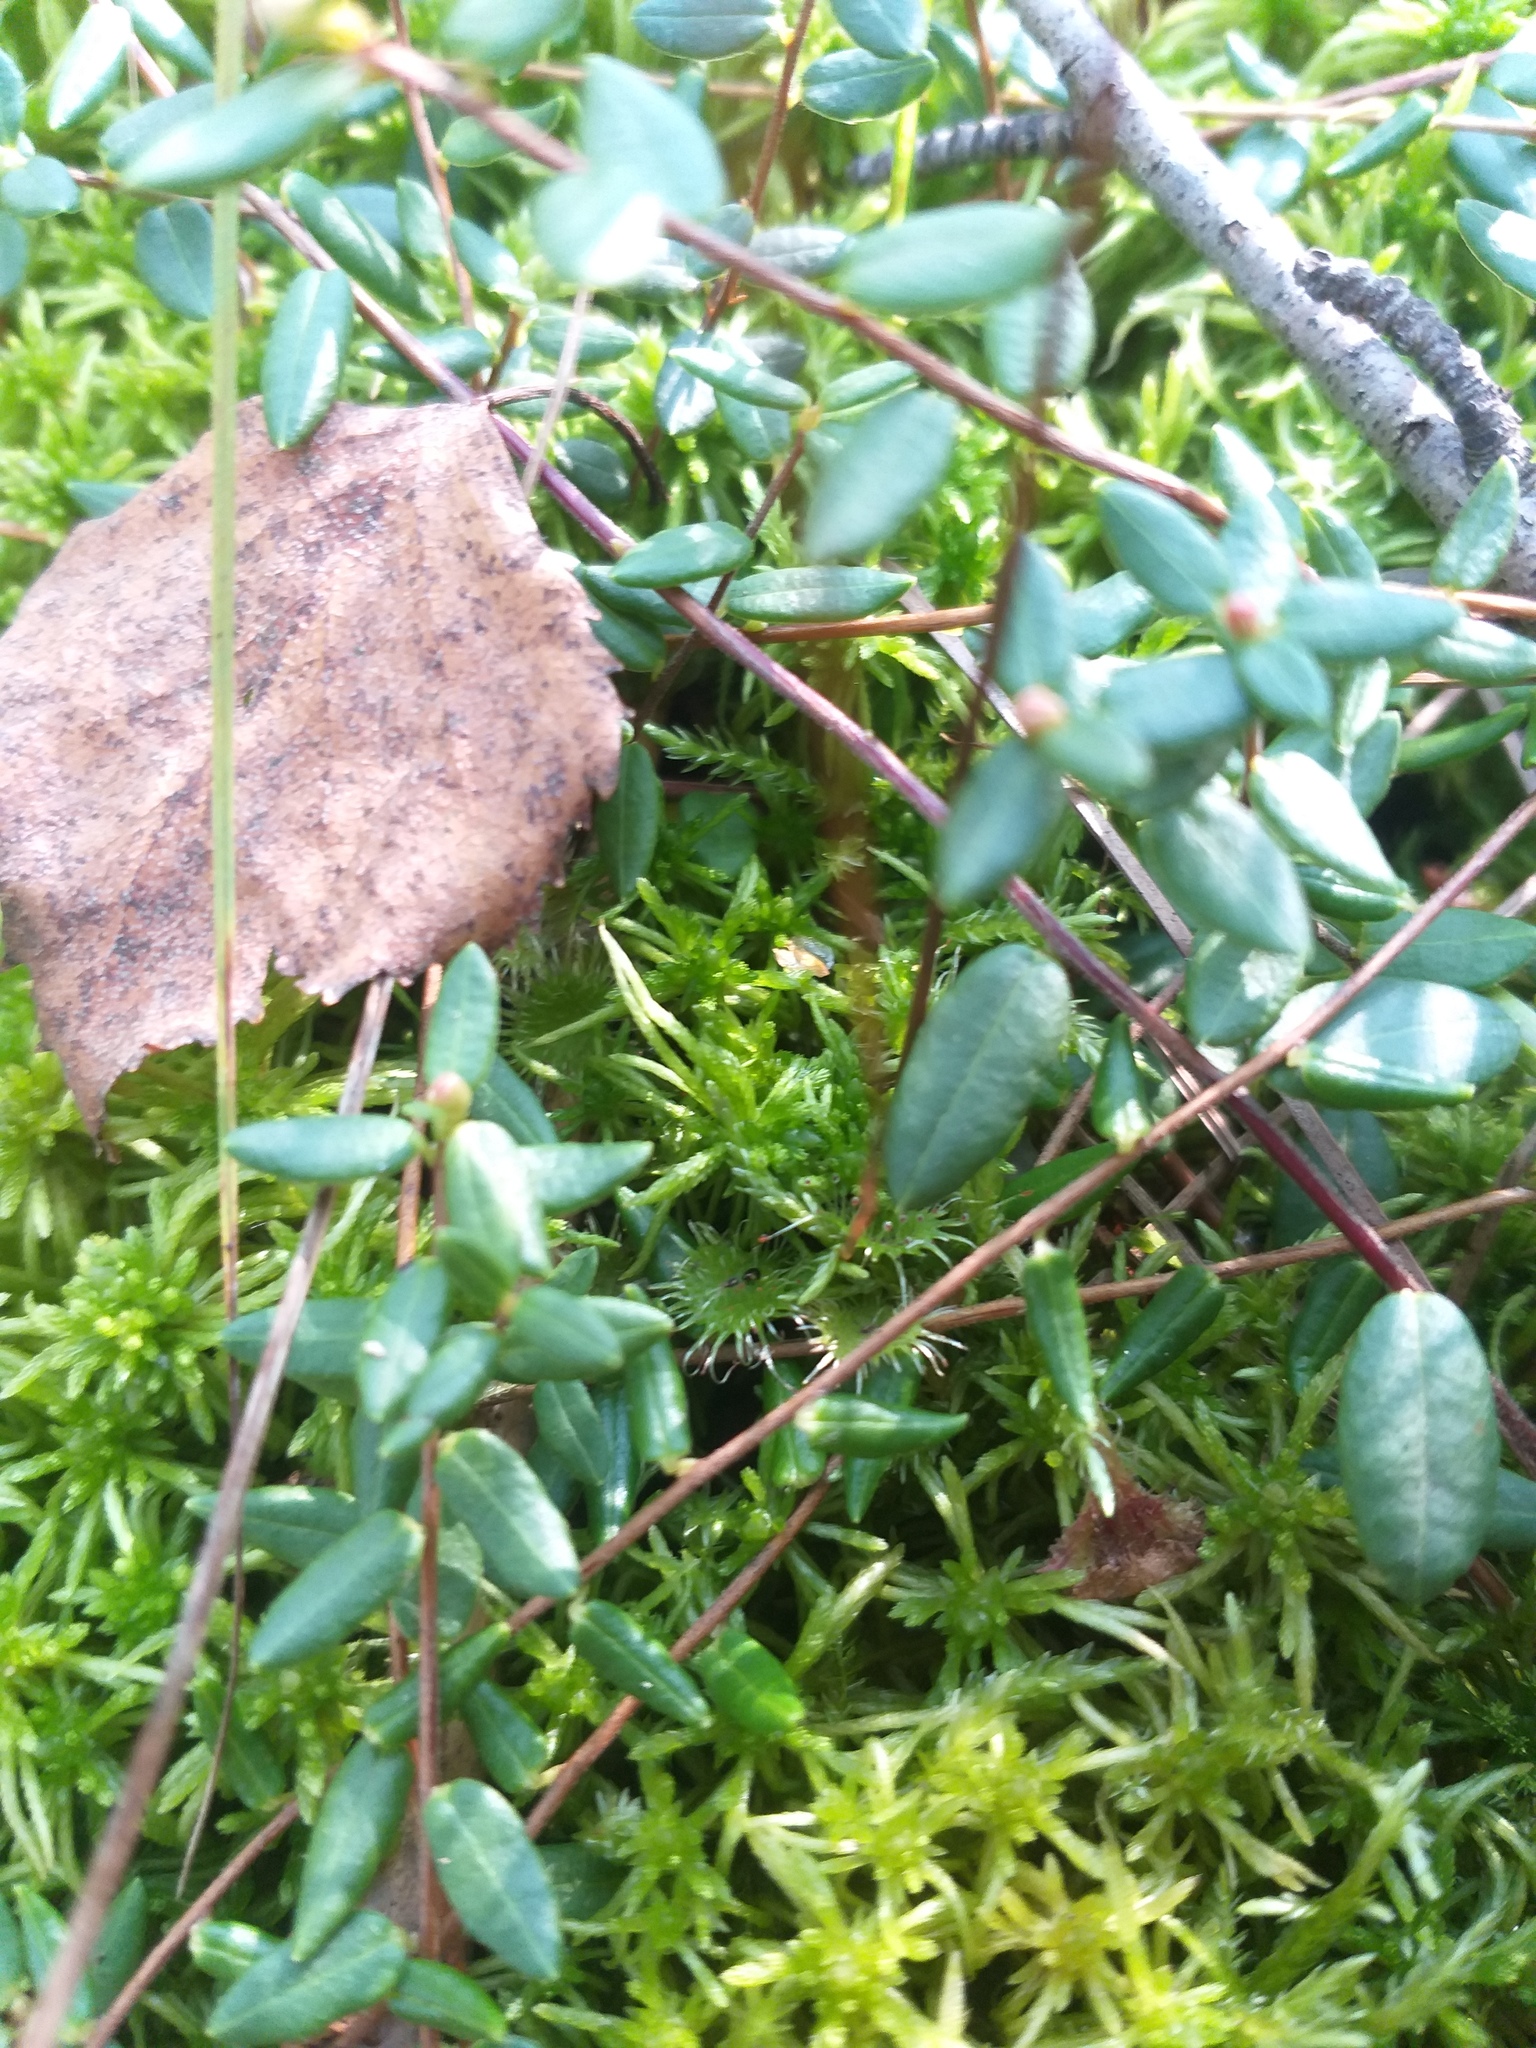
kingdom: Plantae
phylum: Tracheophyta
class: Magnoliopsida
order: Caryophyllales
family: Droseraceae
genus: Drosera
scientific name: Drosera rotundifolia
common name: Round-leaved sundew
